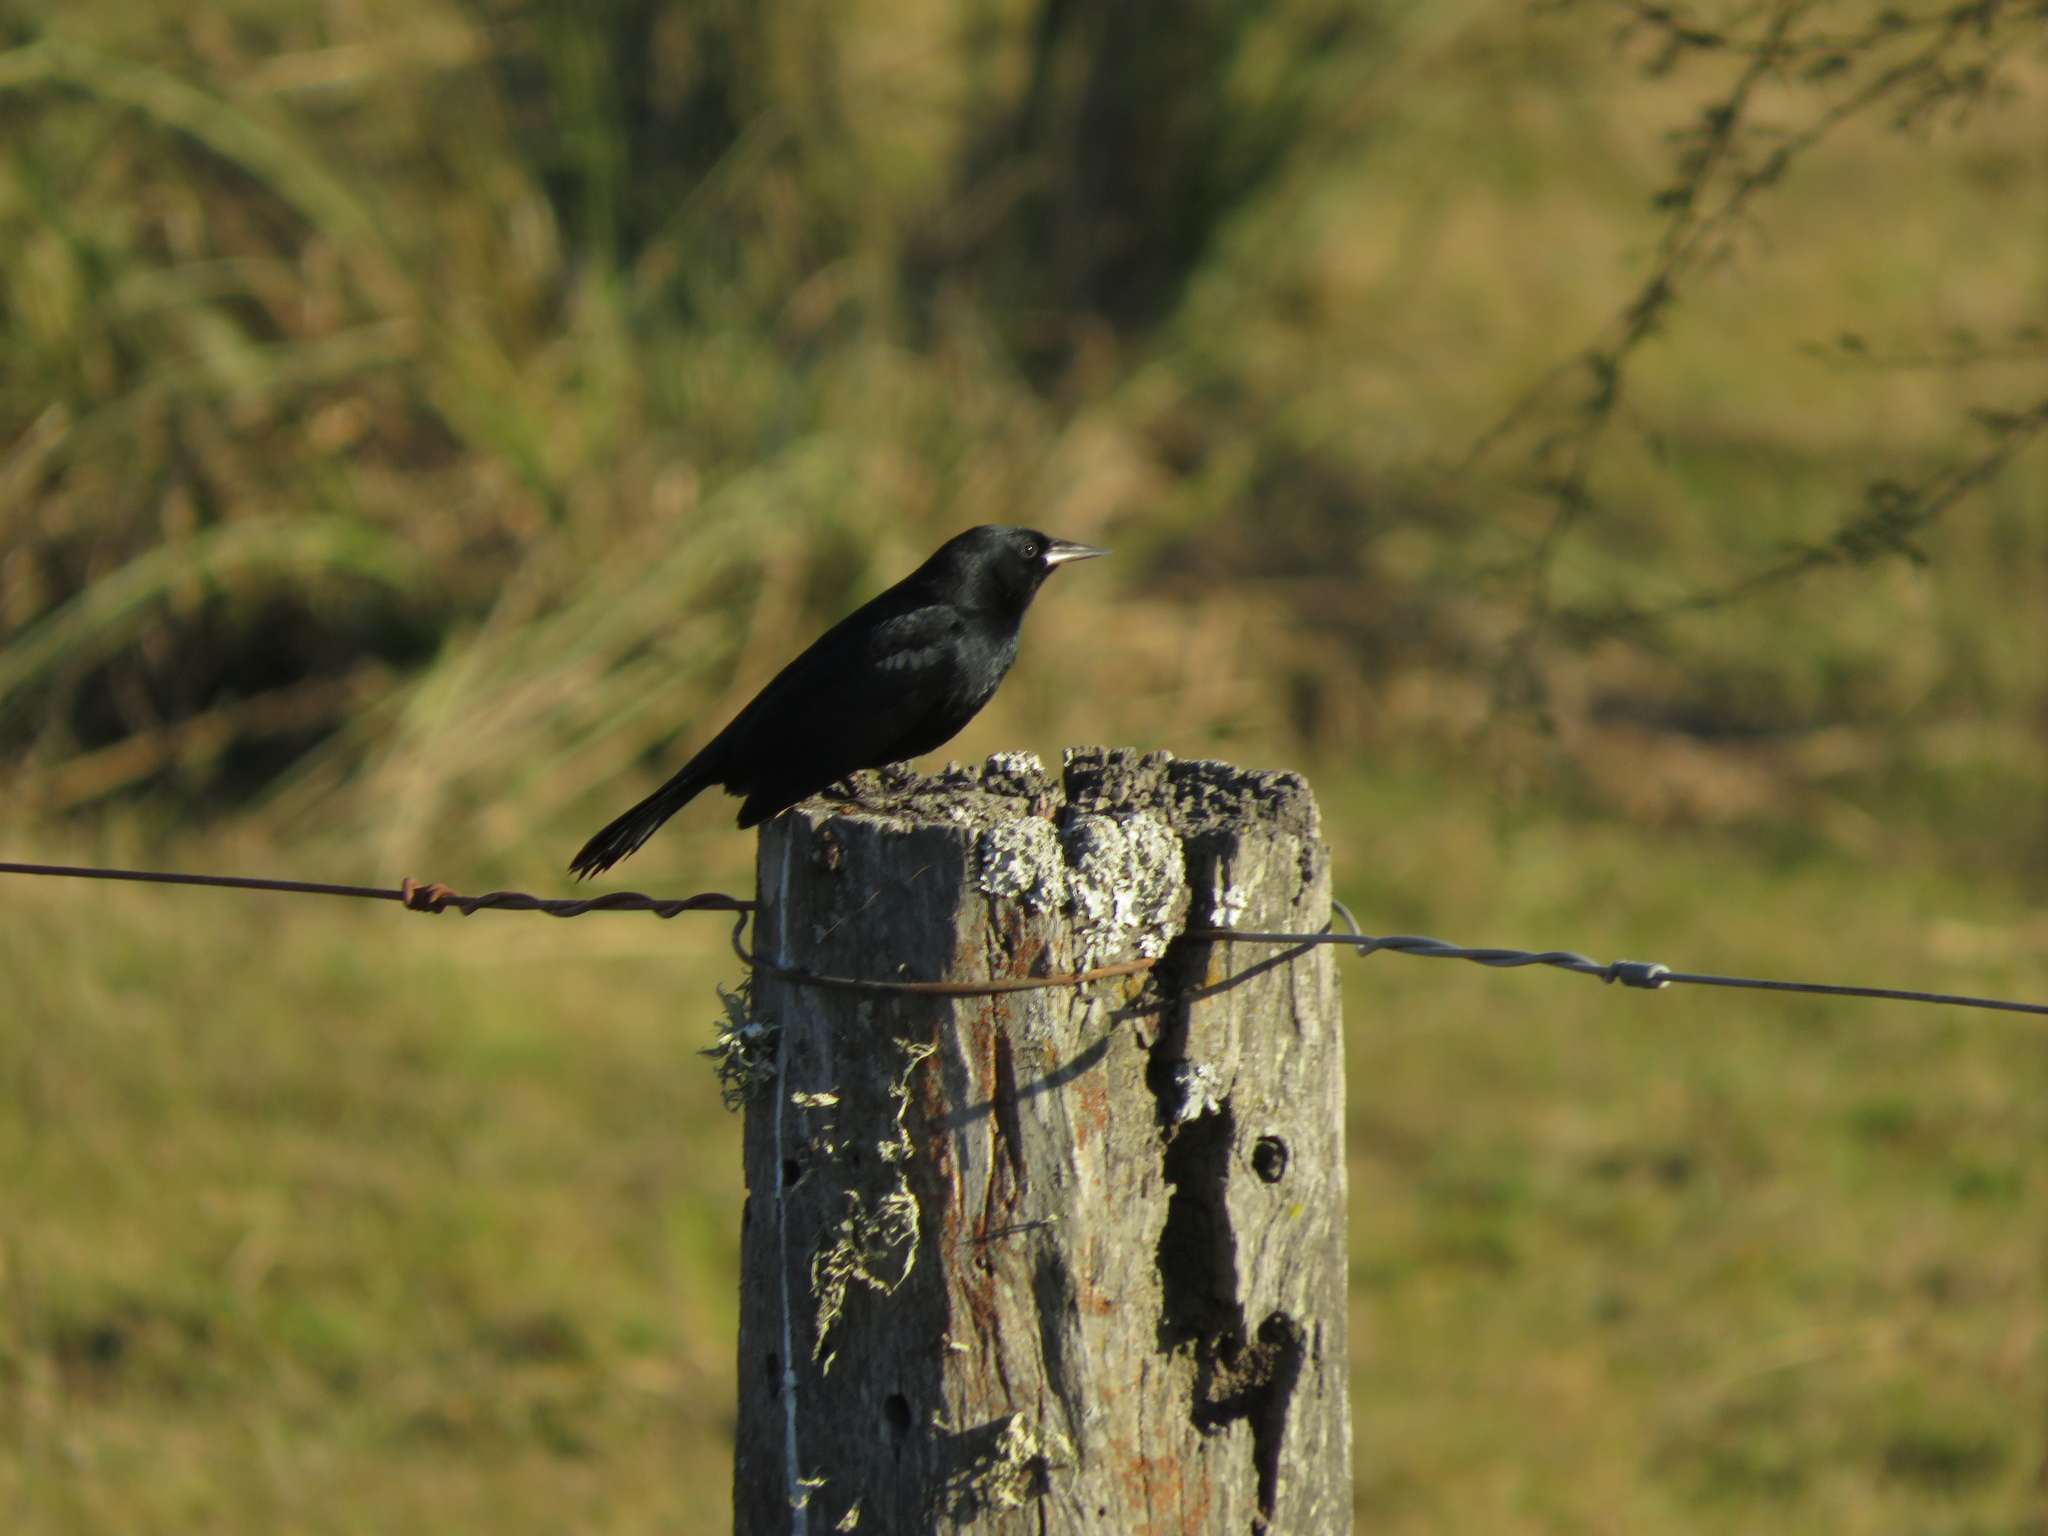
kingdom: Animalia
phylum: Chordata
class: Aves
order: Passeriformes
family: Icteridae
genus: Agelasticus
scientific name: Agelasticus cyanopus
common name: Unicolored blackbird
